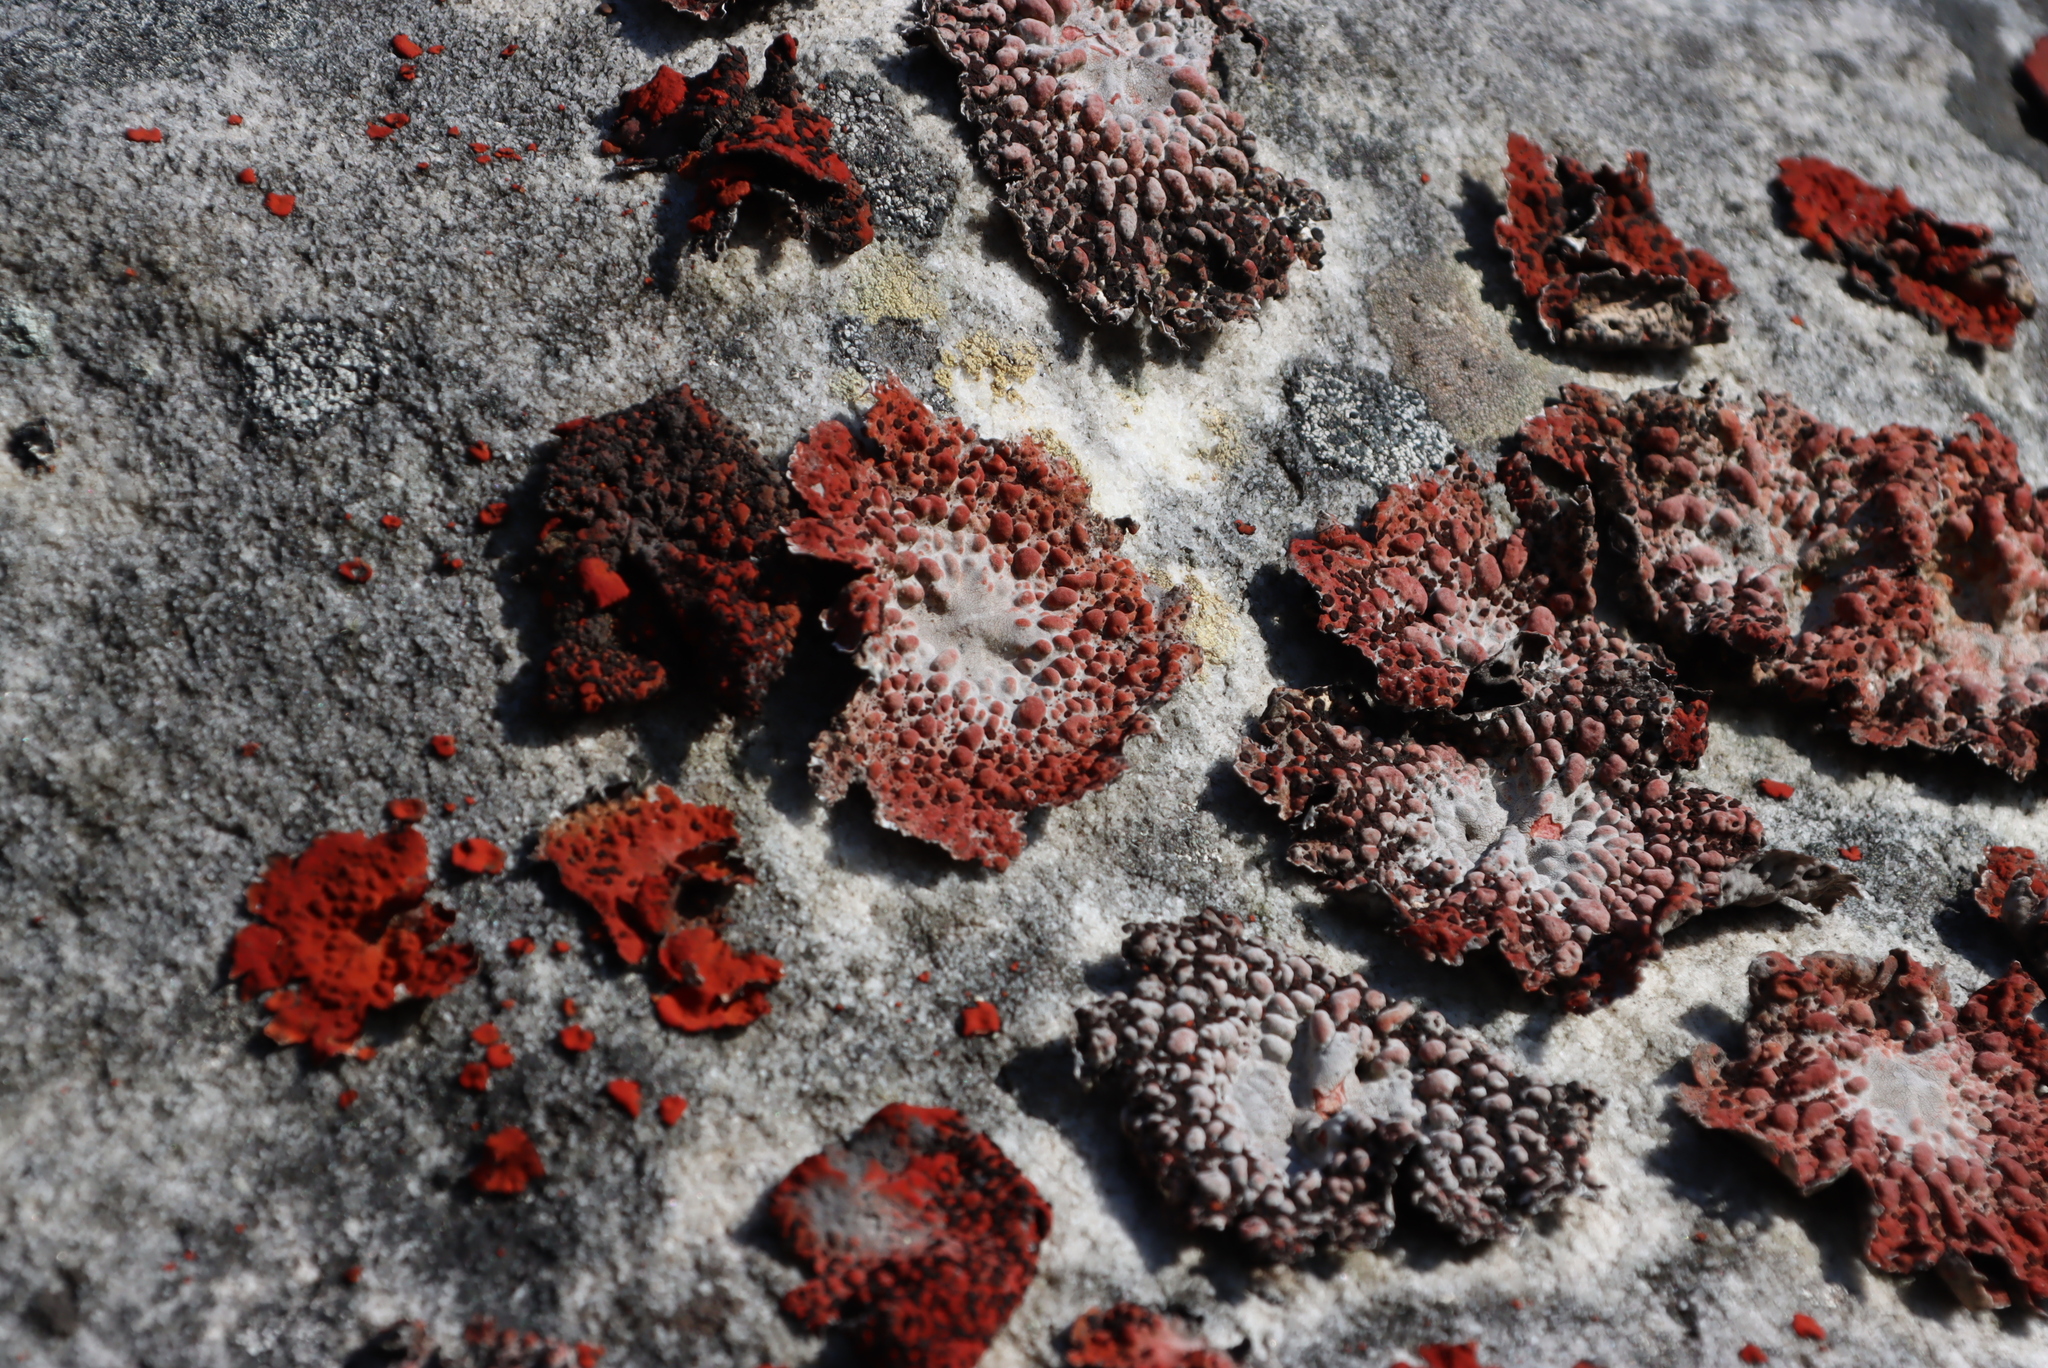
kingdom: Fungi
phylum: Ascomycota
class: Lecanoromycetes
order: Umbilicariales
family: Umbilicariaceae
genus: Lasallia
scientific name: Lasallia rubiginosa
